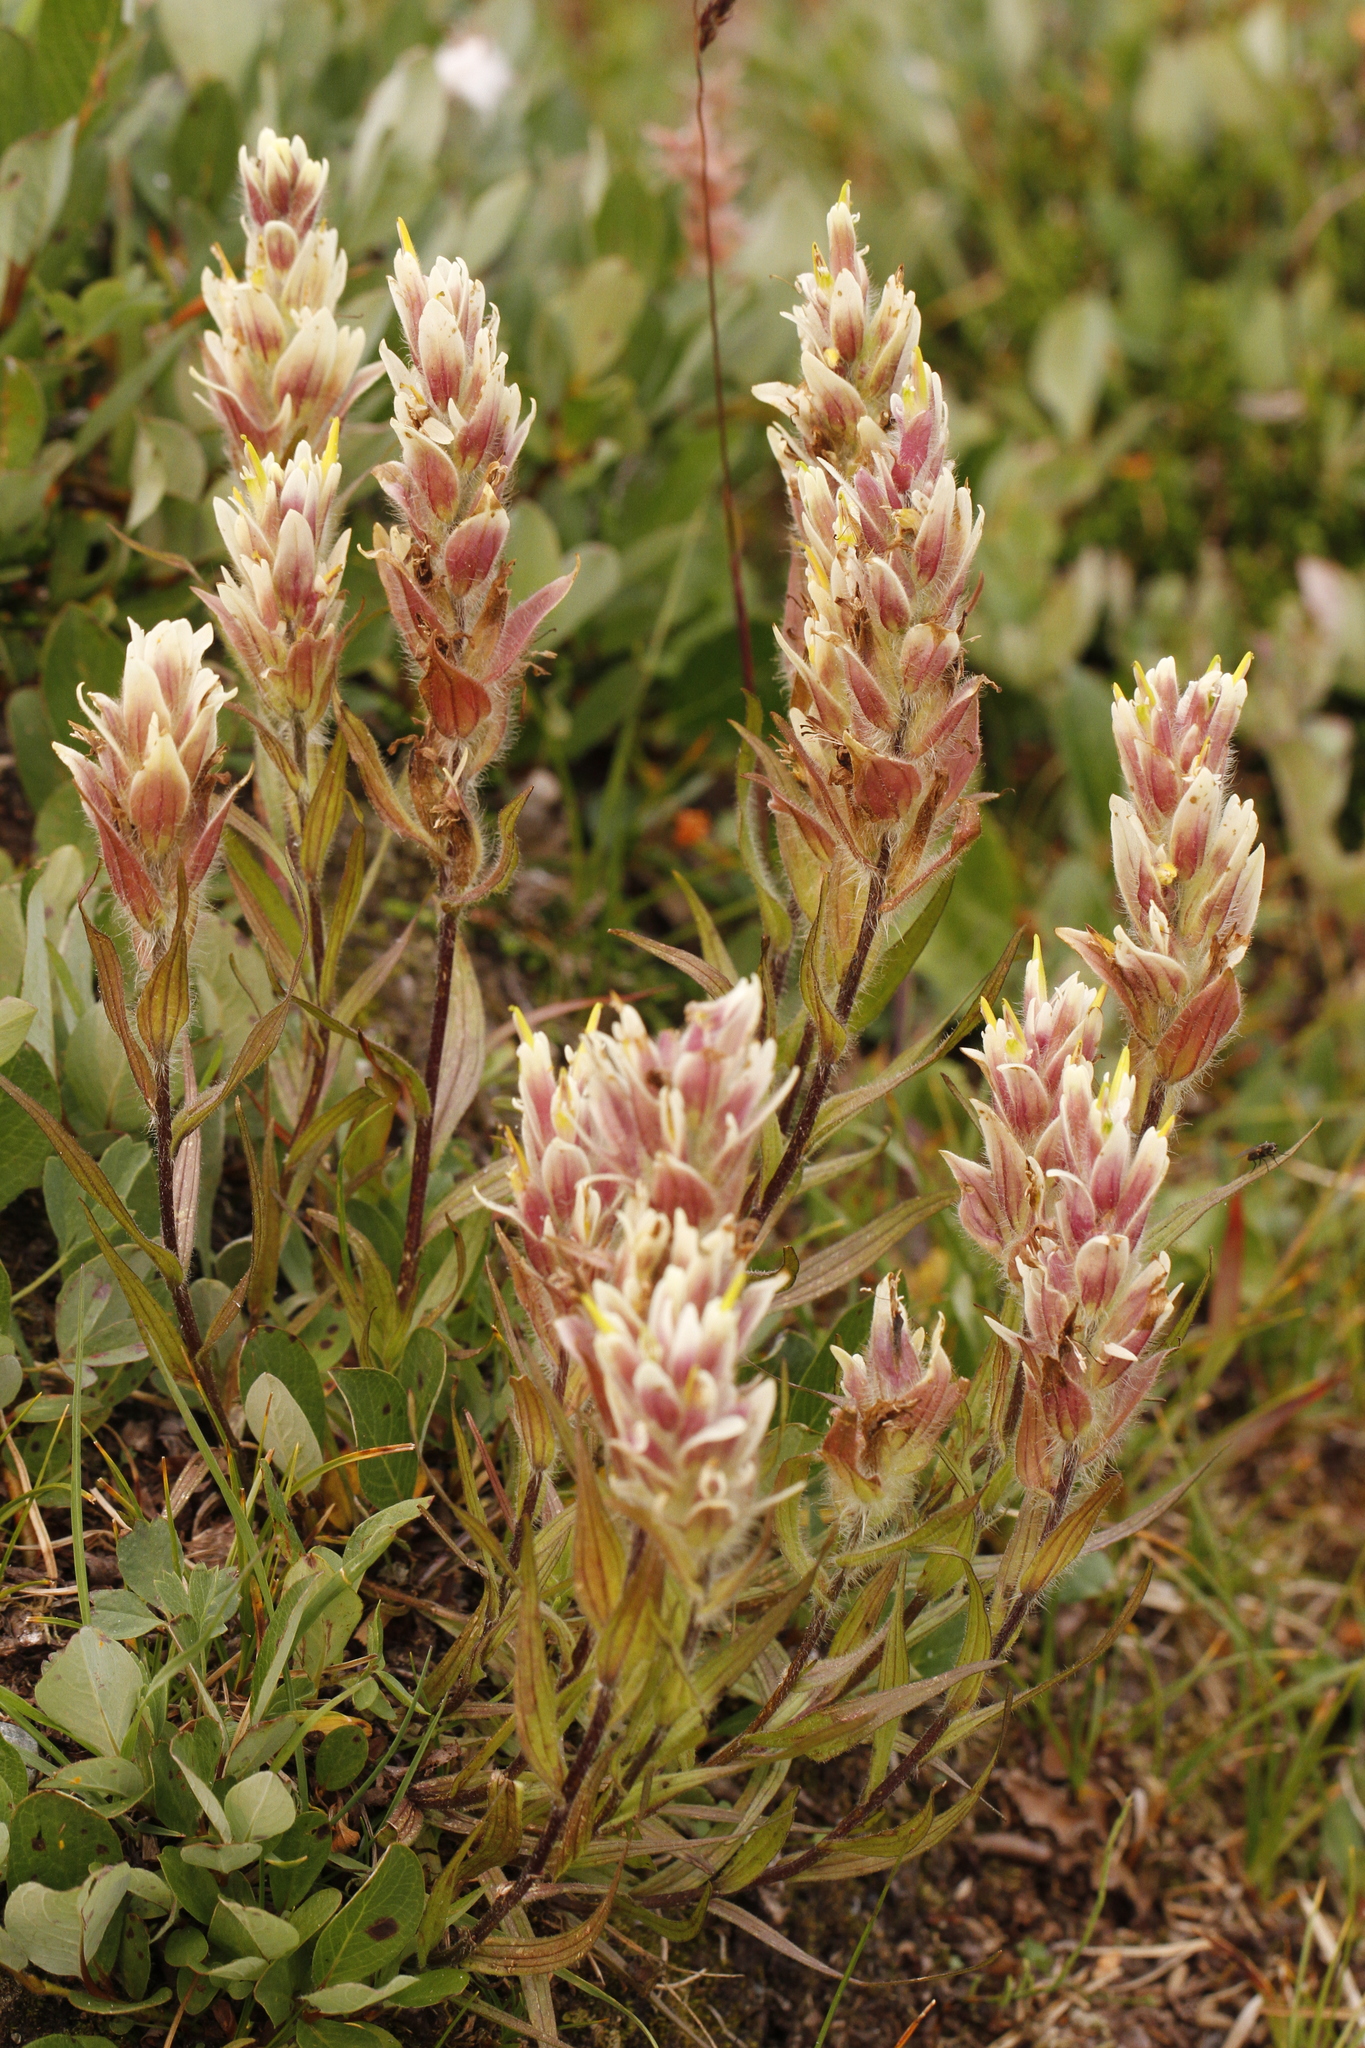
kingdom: Plantae
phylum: Tracheophyta
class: Magnoliopsida
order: Lamiales
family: Orobanchaceae
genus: Castilleja
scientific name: Castilleja occidentalis
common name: Western paintbrush
